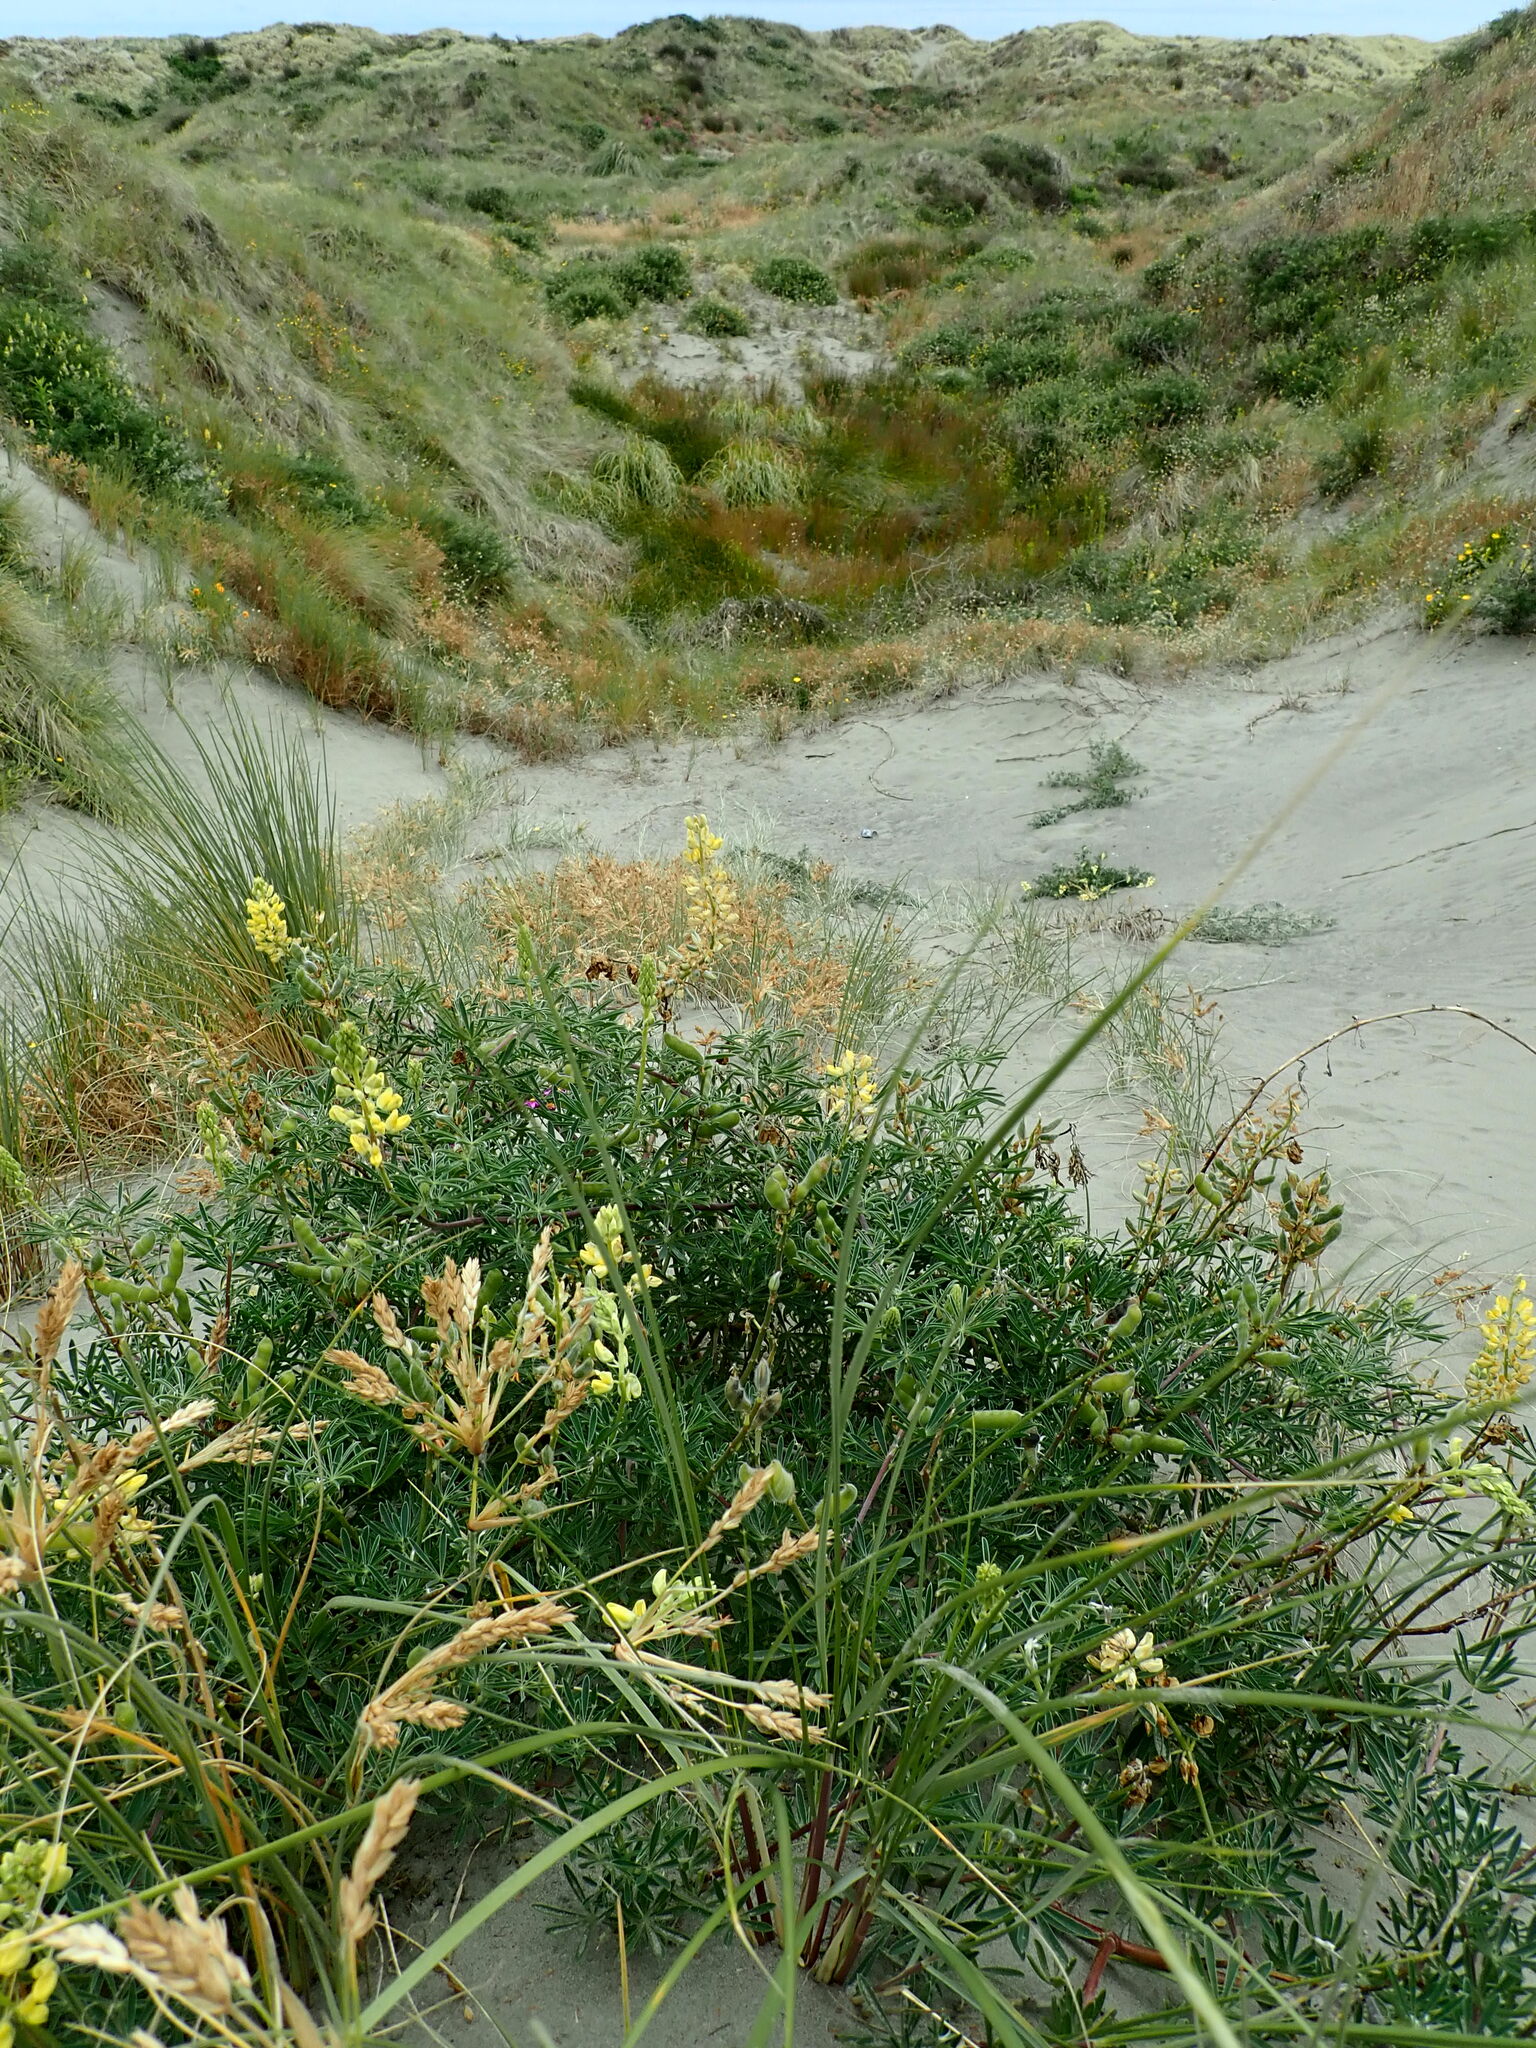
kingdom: Plantae
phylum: Tracheophyta
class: Magnoliopsida
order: Fabales
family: Fabaceae
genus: Lupinus
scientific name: Lupinus arboreus
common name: Yellow bush lupine
